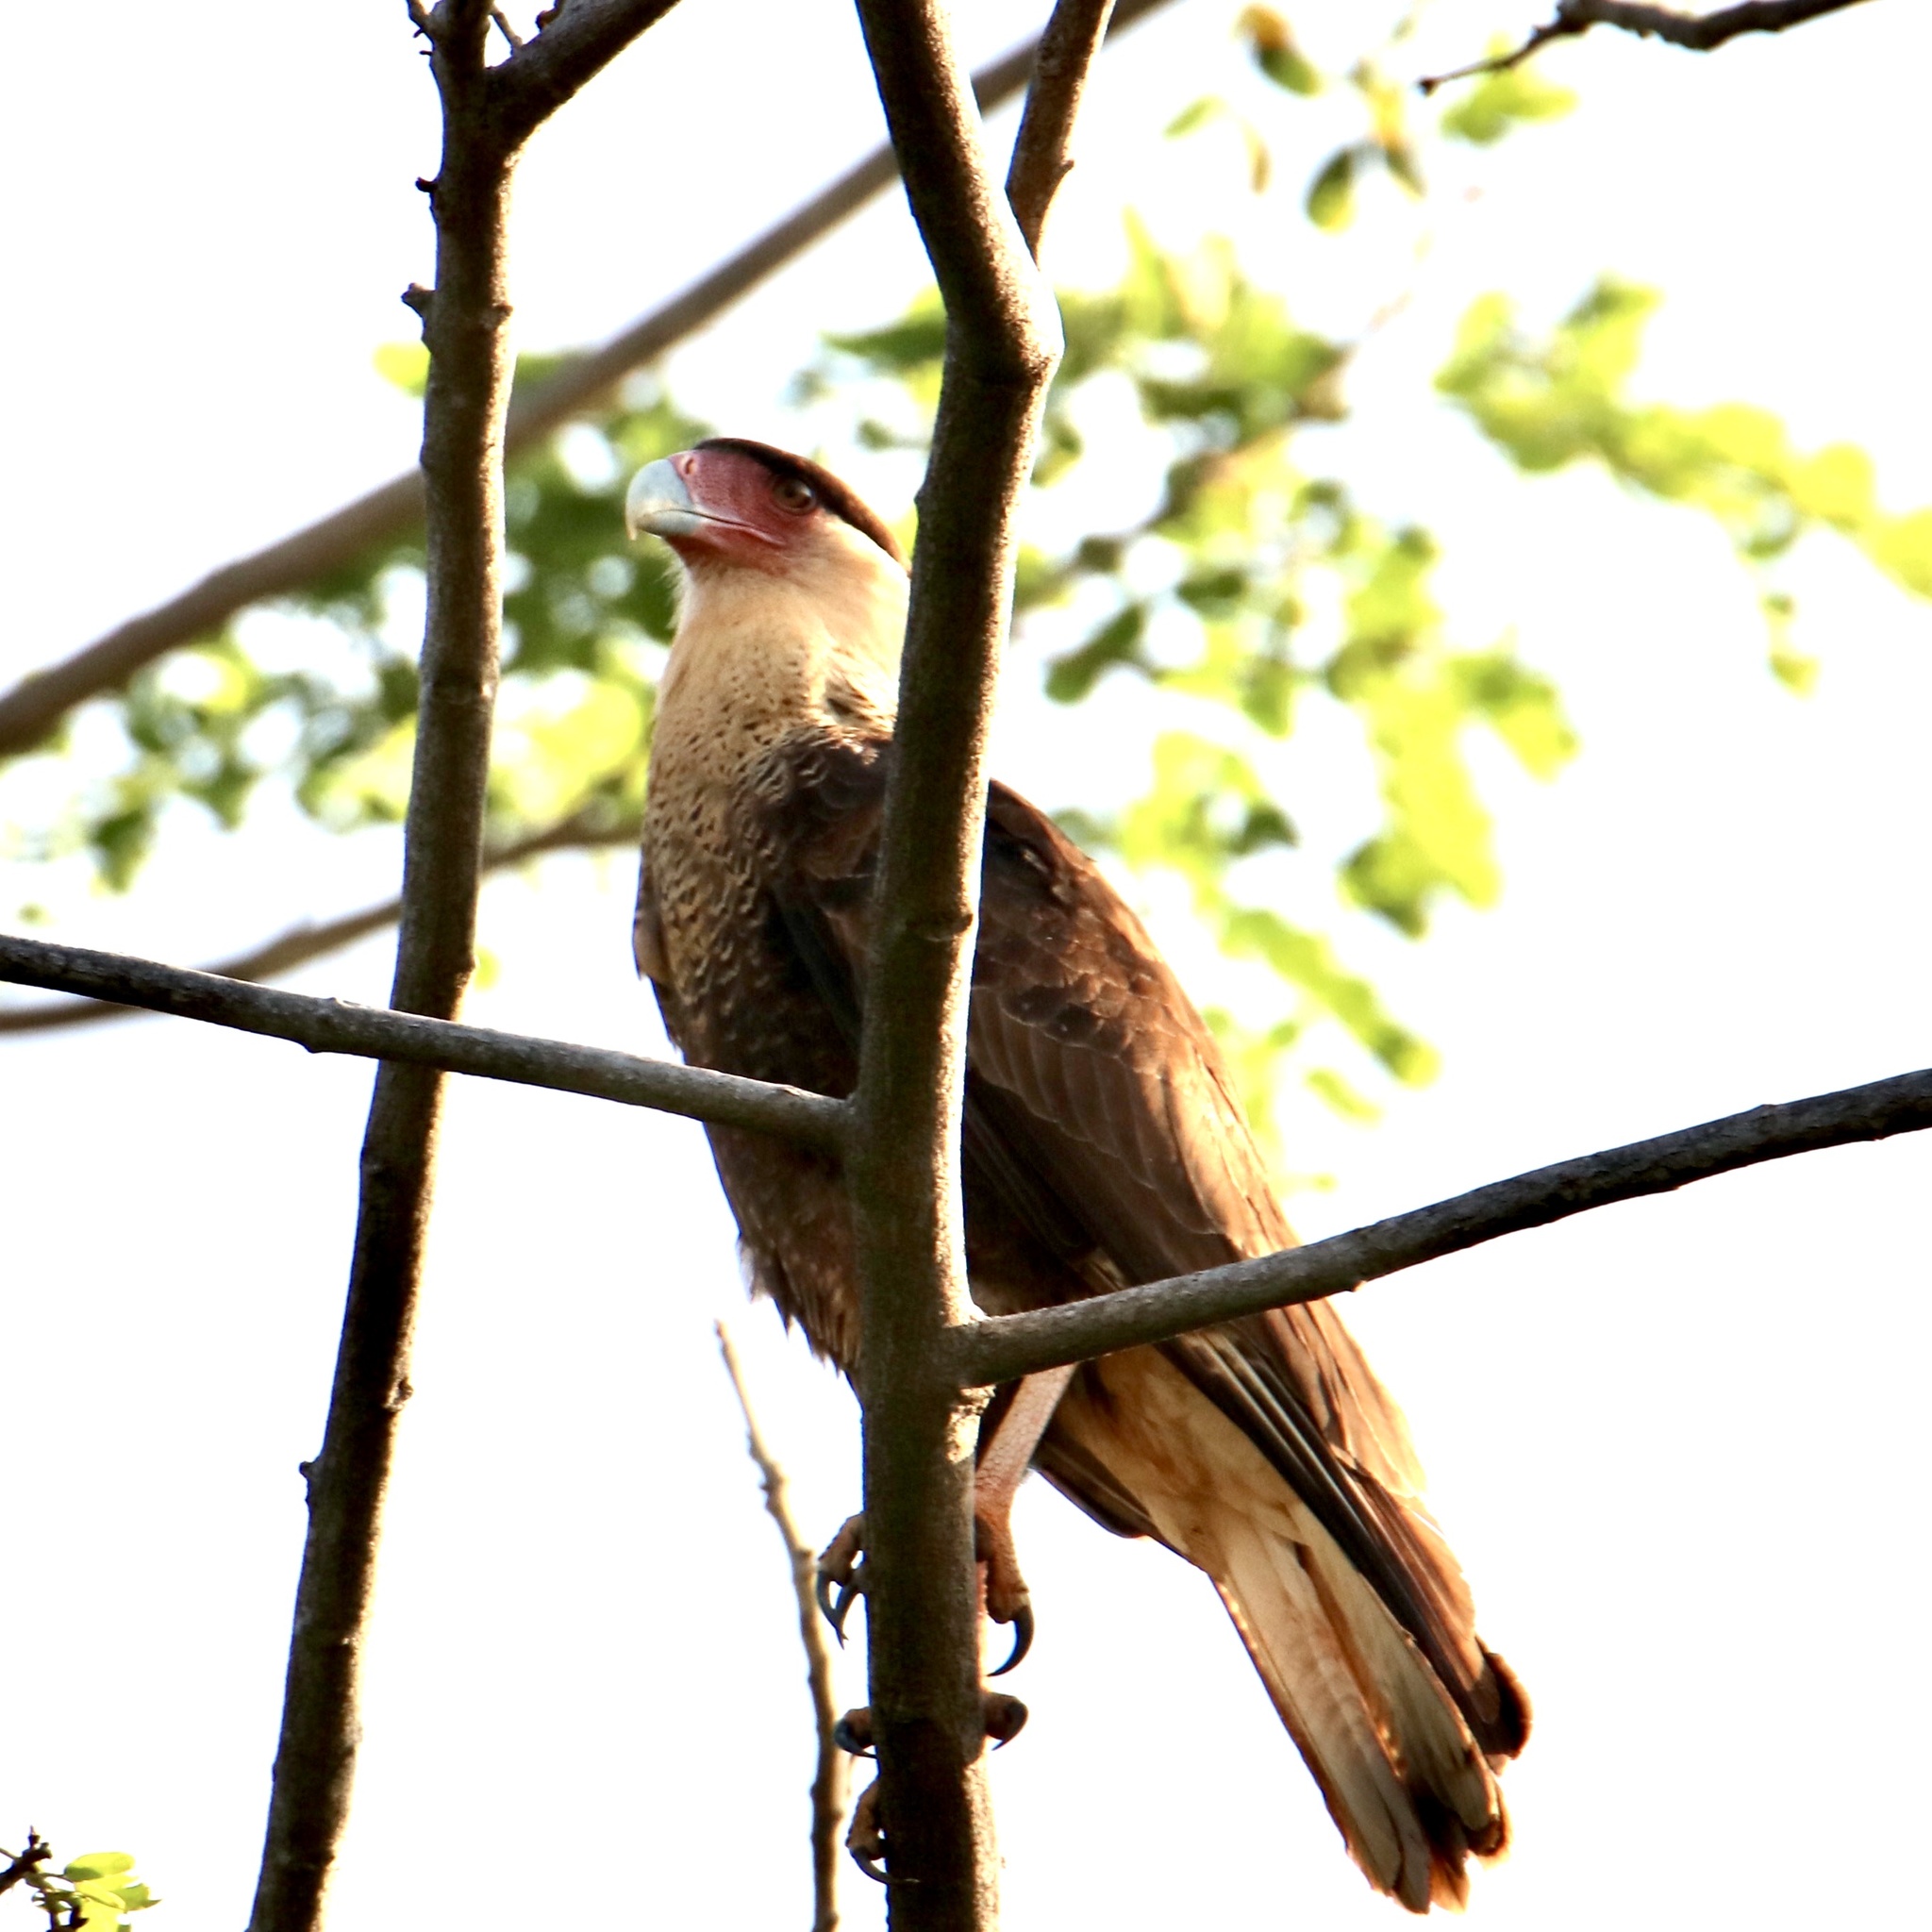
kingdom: Animalia
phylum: Chordata
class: Aves
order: Falconiformes
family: Falconidae
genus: Caracara
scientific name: Caracara plancus
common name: Southern caracara
